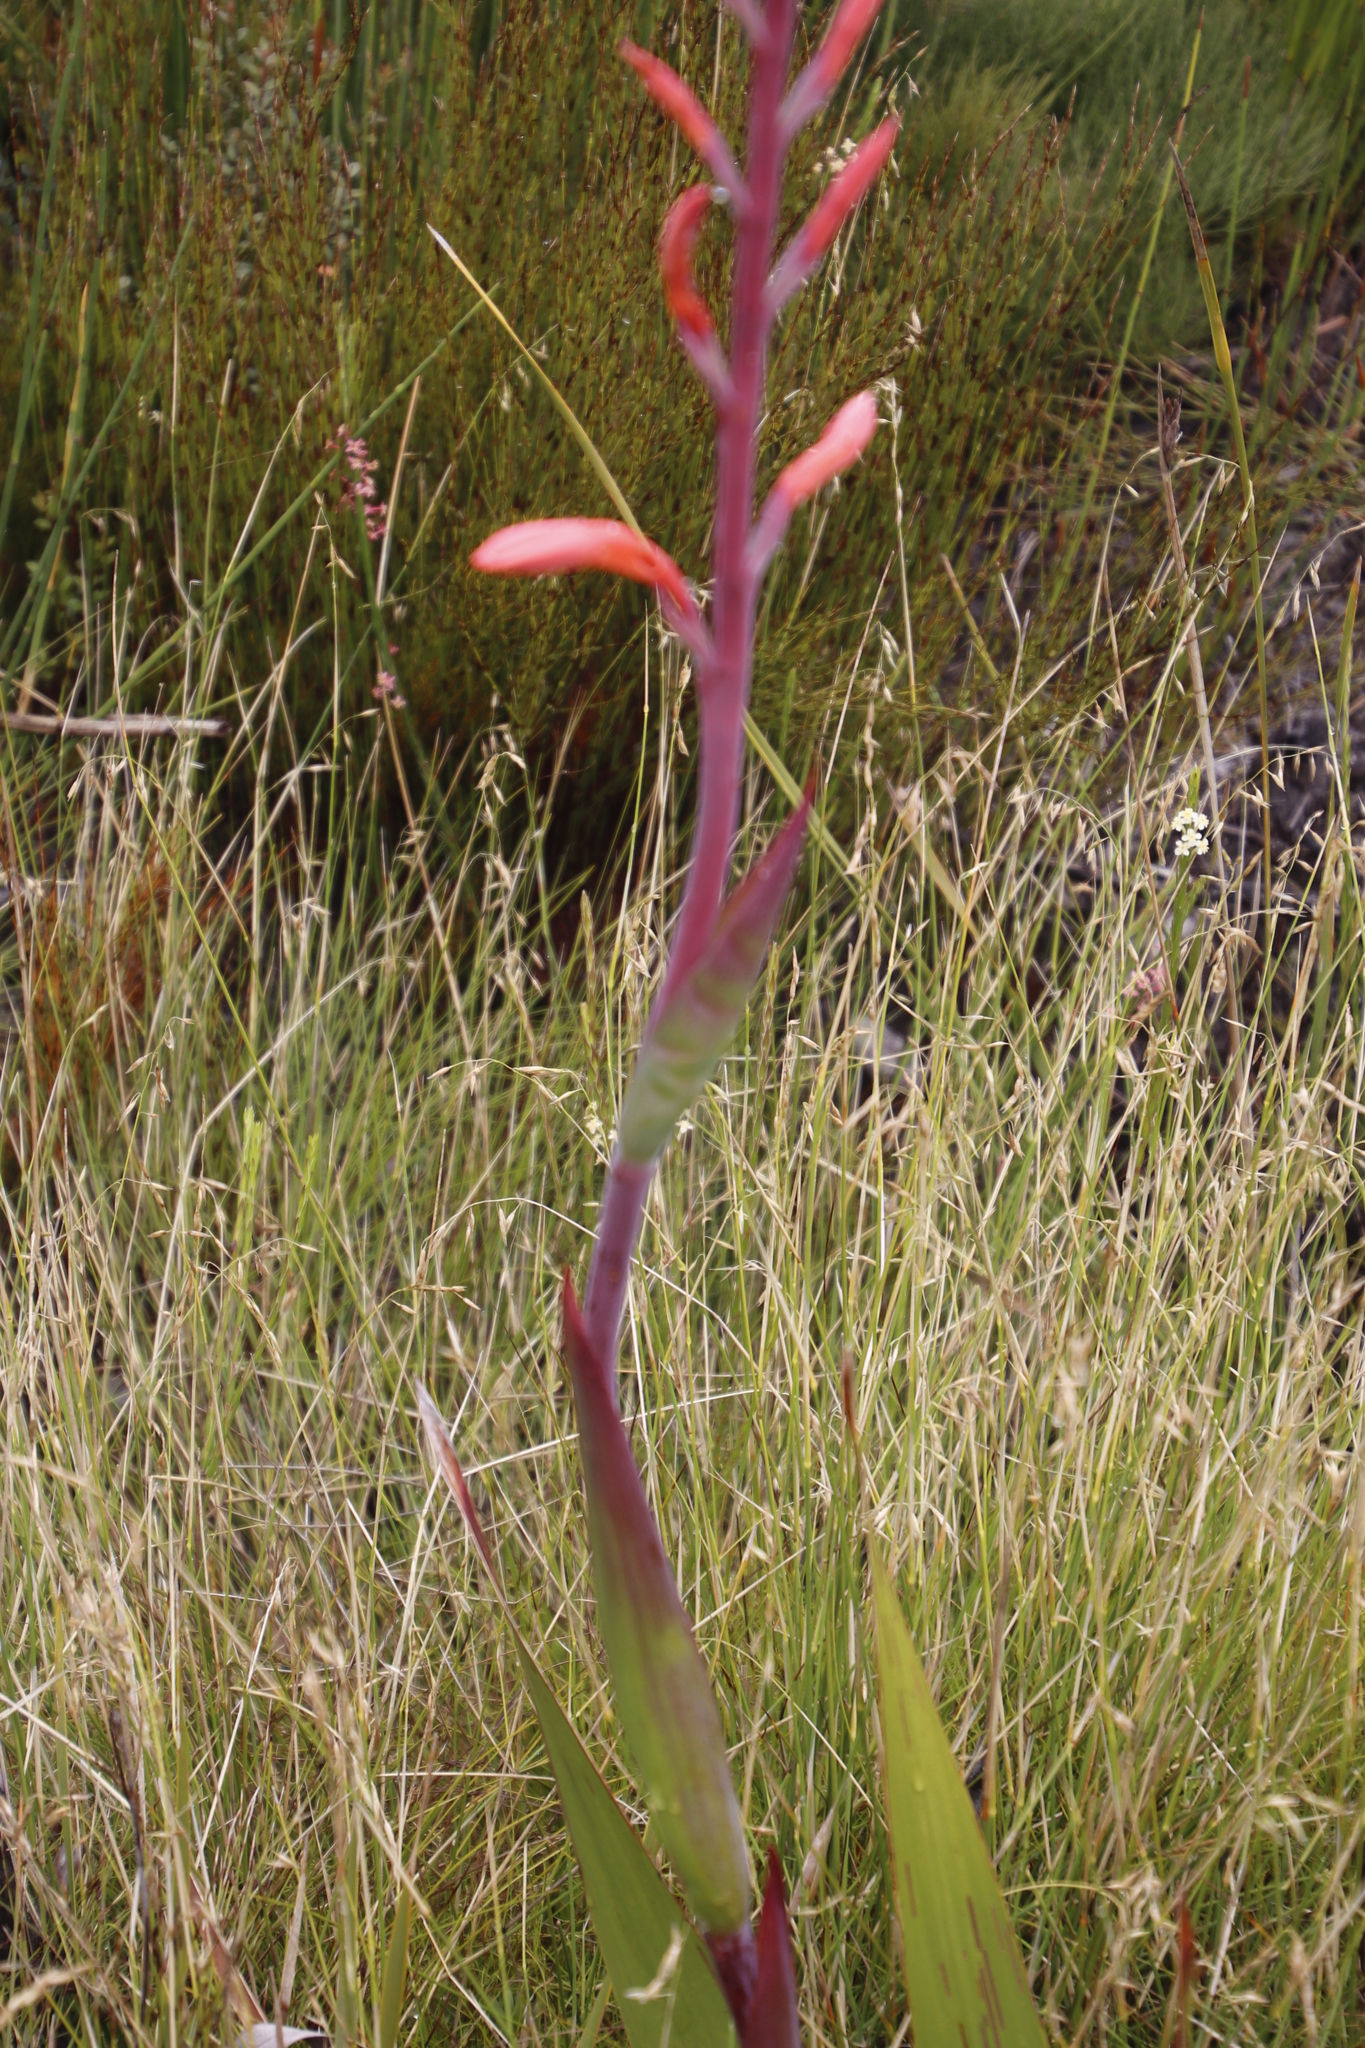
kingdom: Plantae
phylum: Tracheophyta
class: Liliopsida
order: Asparagales
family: Iridaceae
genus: Watsonia
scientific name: Watsonia tabularis
